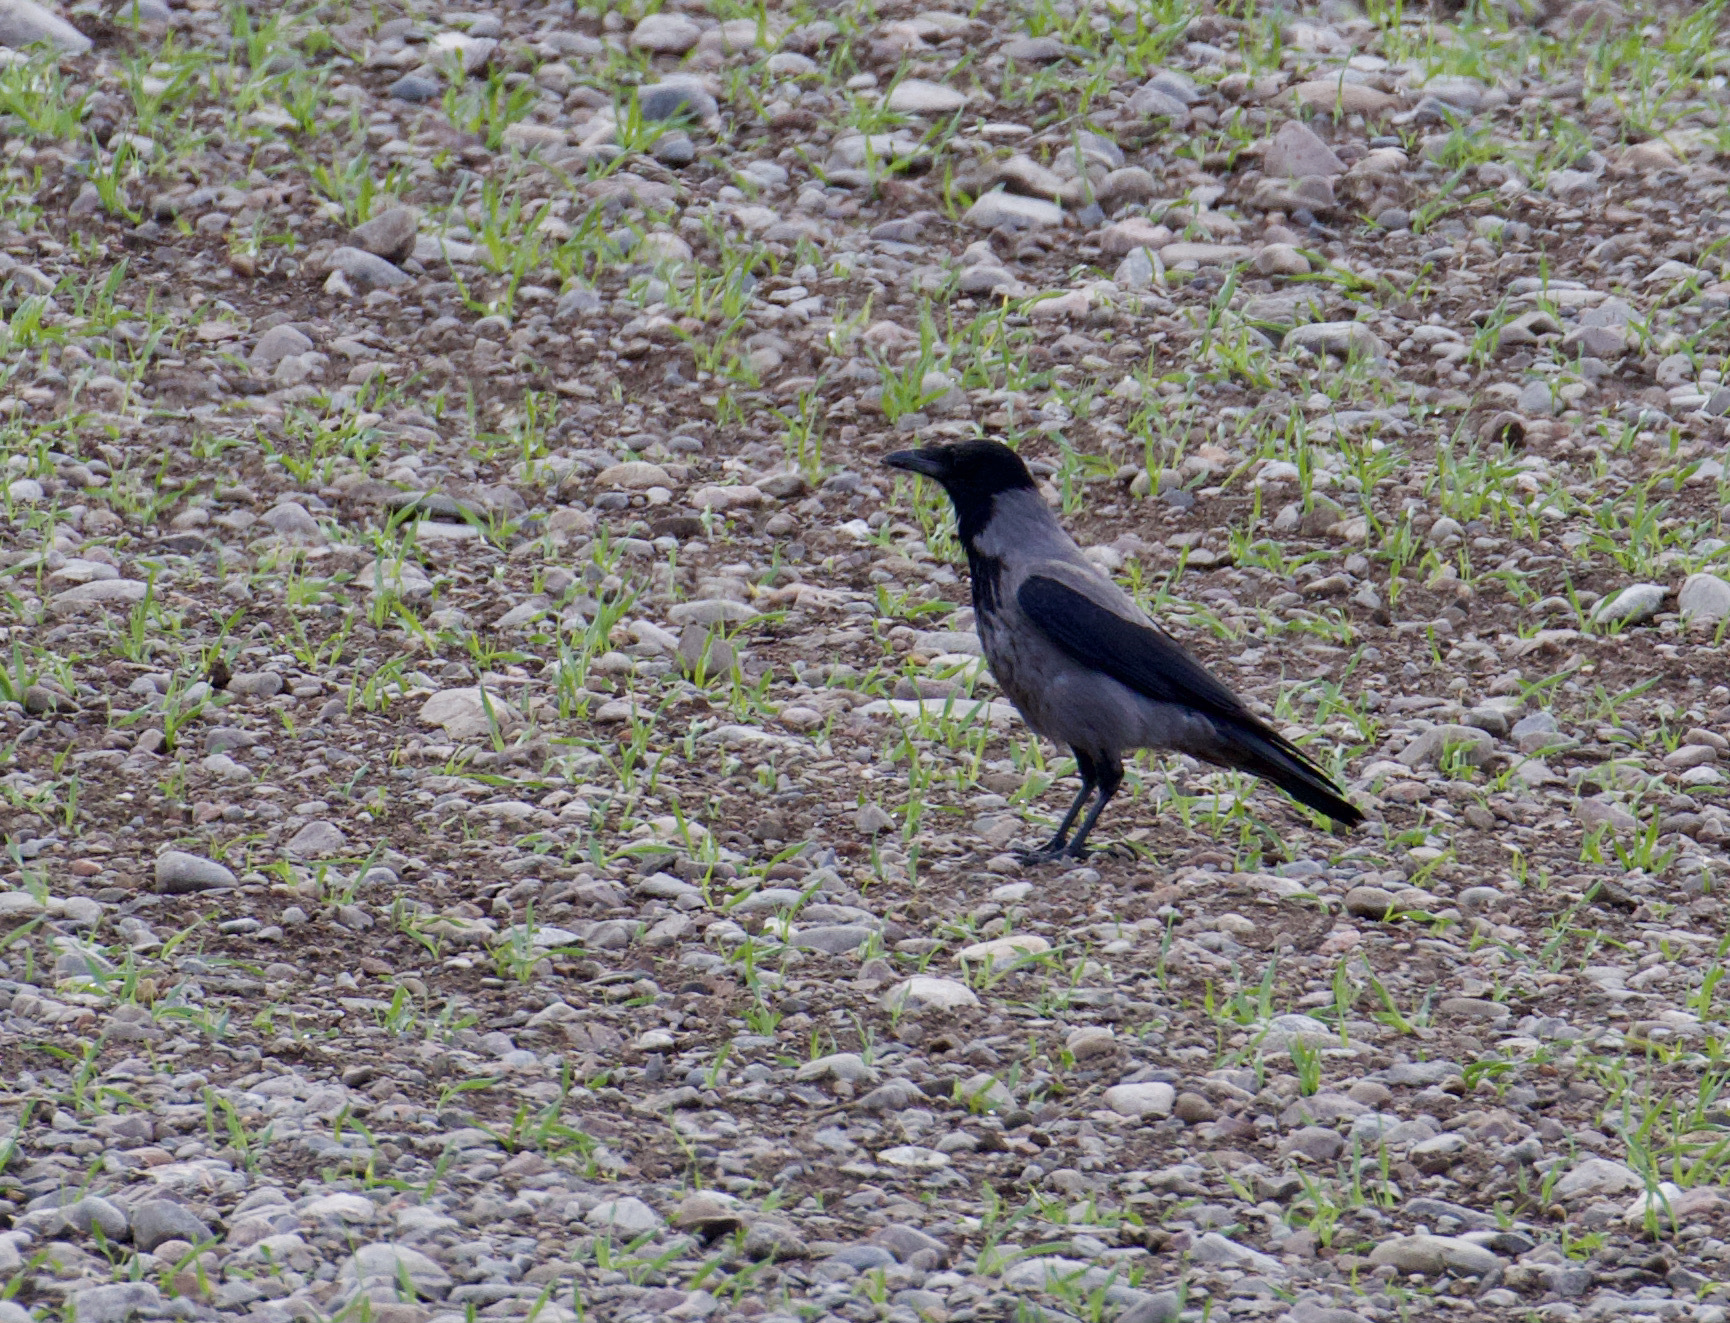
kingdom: Animalia
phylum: Chordata
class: Aves
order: Passeriformes
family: Corvidae
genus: Corvus
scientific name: Corvus cornix
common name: Hooded crow
